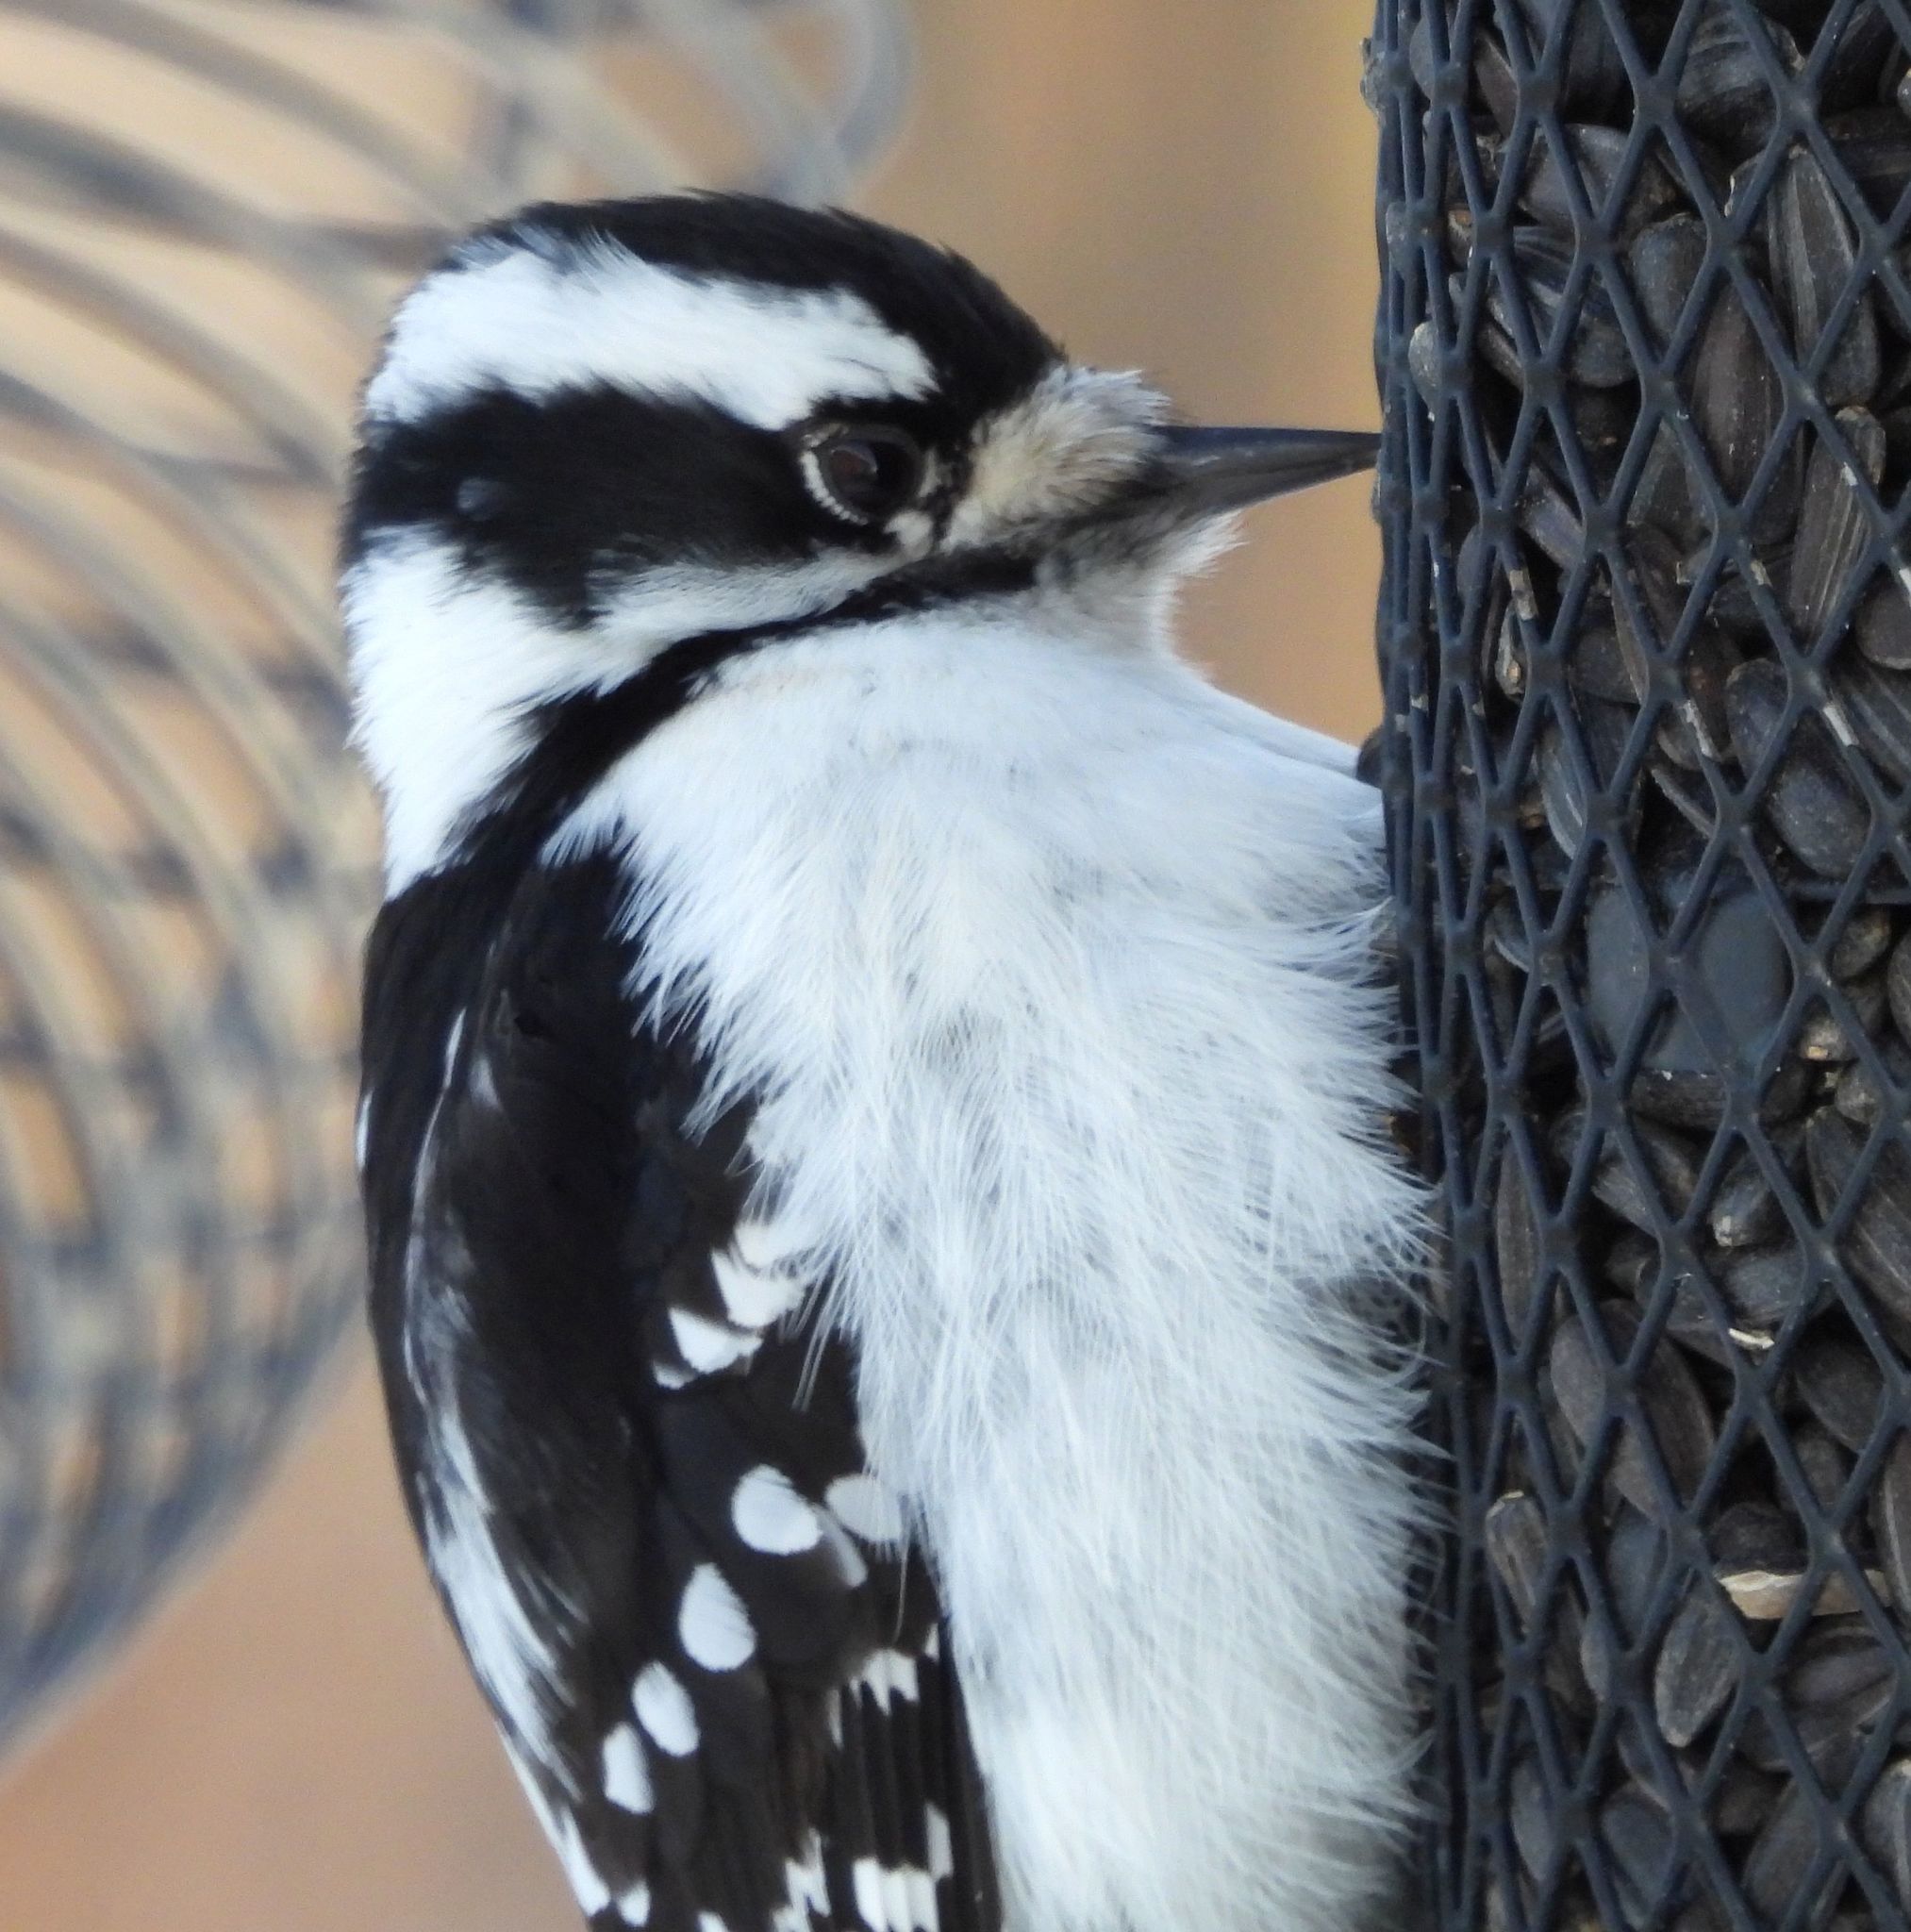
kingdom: Animalia
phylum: Chordata
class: Aves
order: Piciformes
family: Picidae
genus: Dryobates
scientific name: Dryobates pubescens
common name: Downy woodpecker
